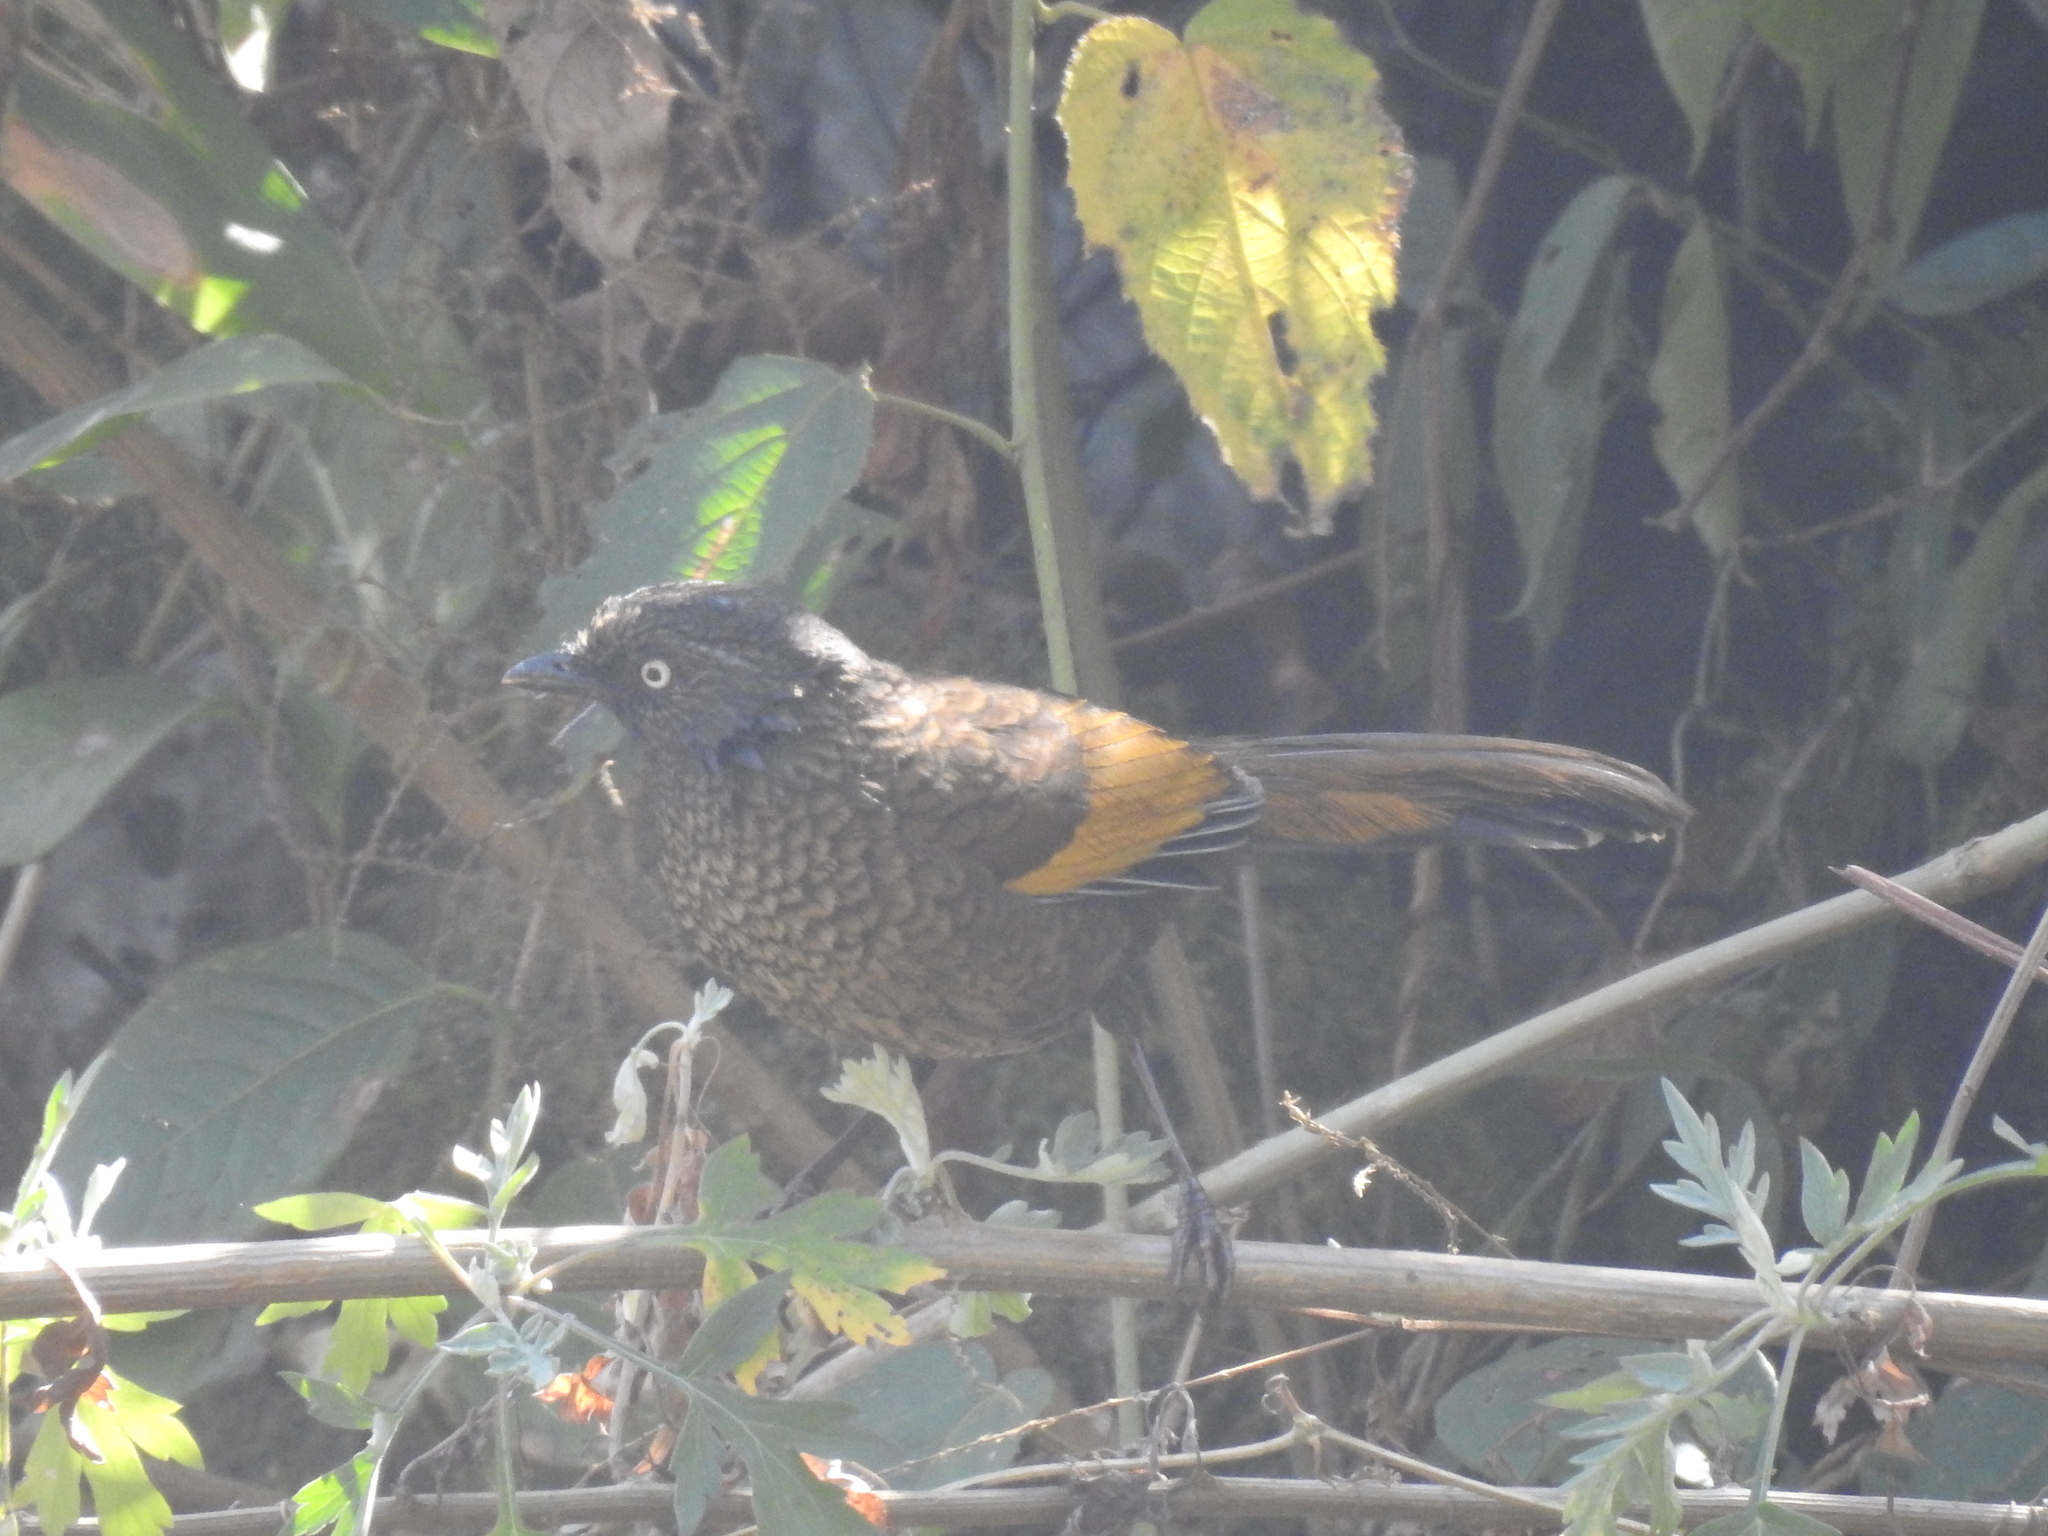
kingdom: Animalia
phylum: Chordata
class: Aves
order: Passeriformes
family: Leiothrichidae
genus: Trochalopteron
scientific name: Trochalopteron subunicolor
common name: Scaly laughingthrush
